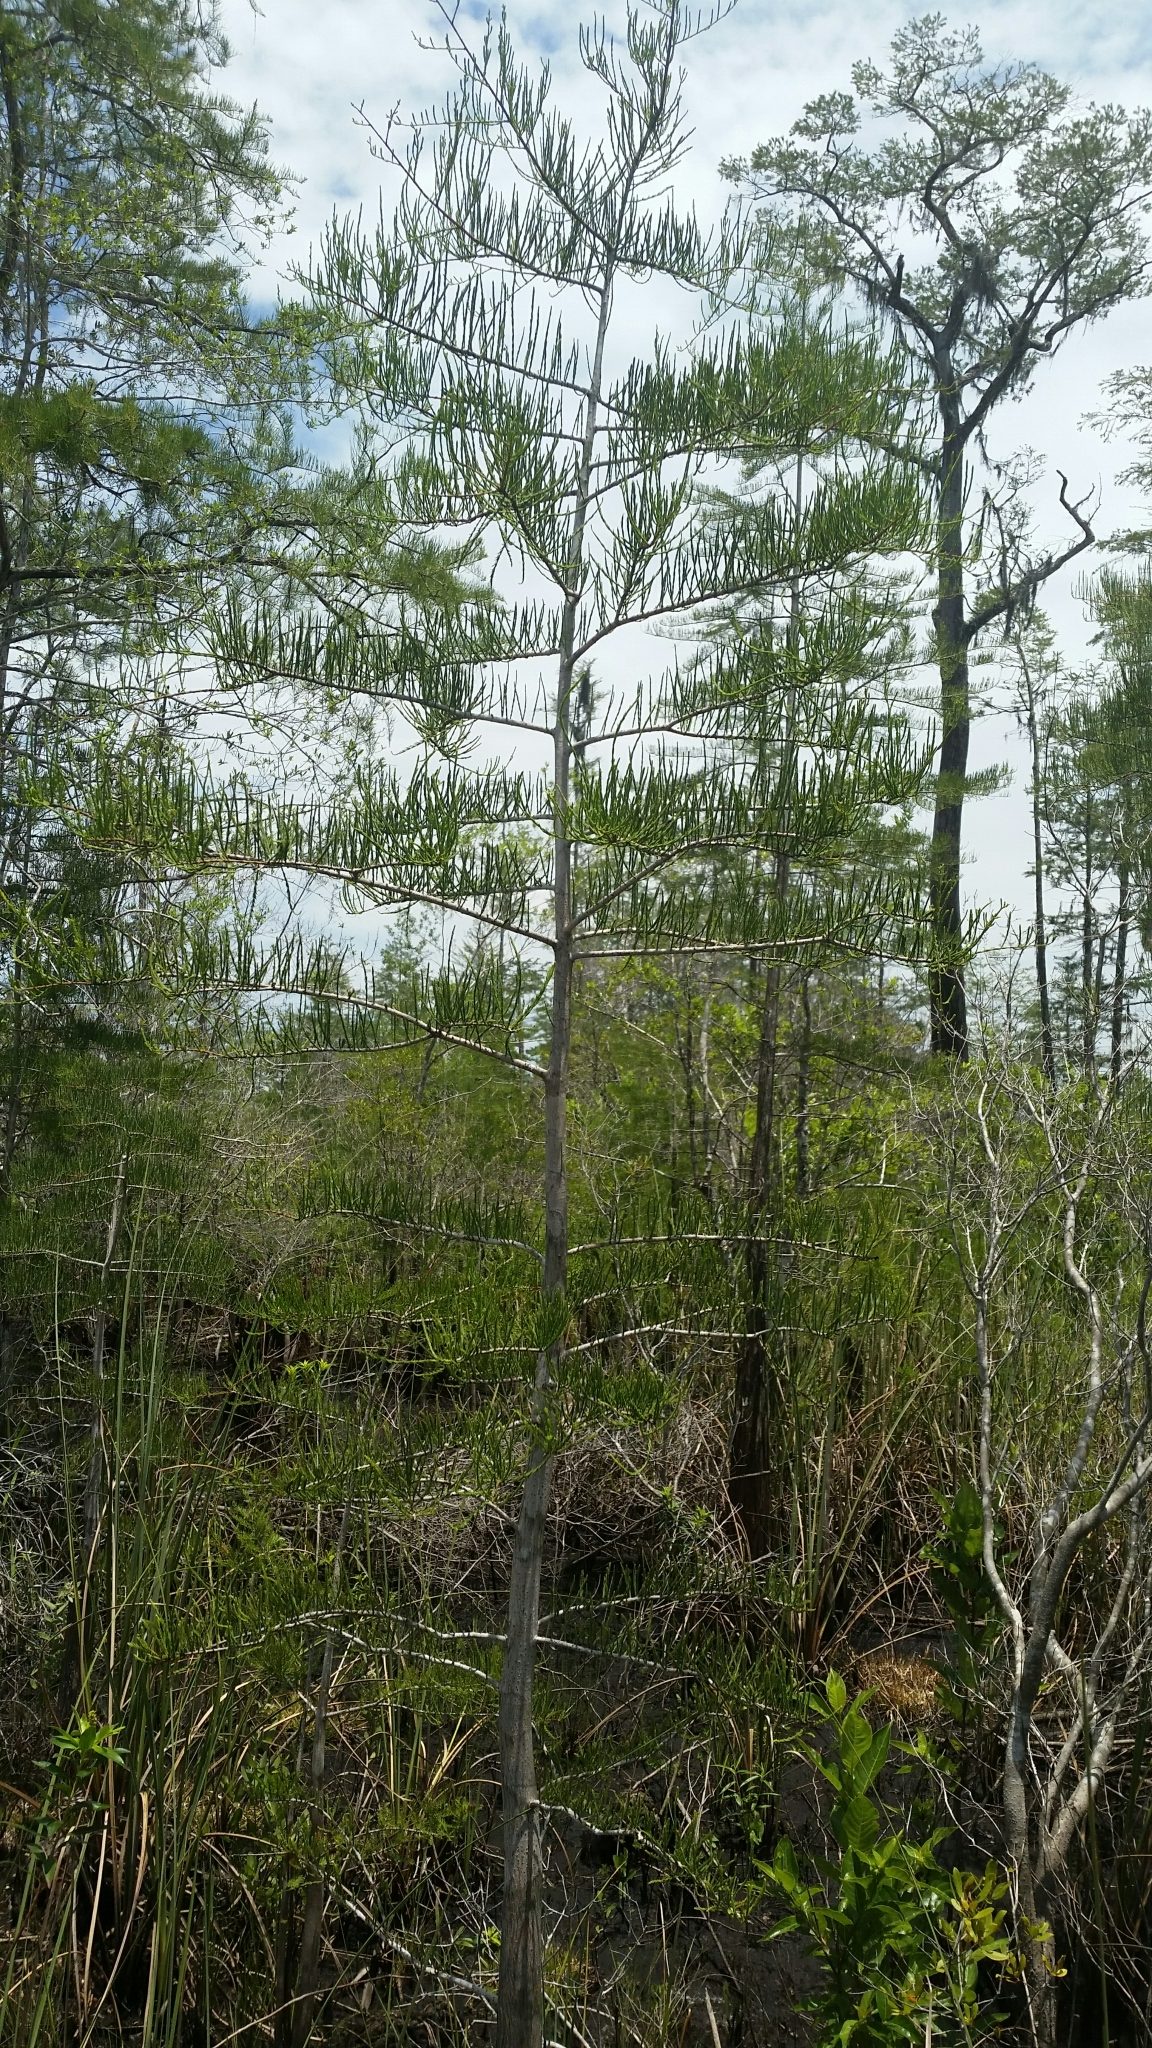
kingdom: Plantae
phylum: Tracheophyta
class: Pinopsida
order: Pinales
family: Cupressaceae
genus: Taxodium
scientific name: Taxodium distichum
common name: Bald cypress
